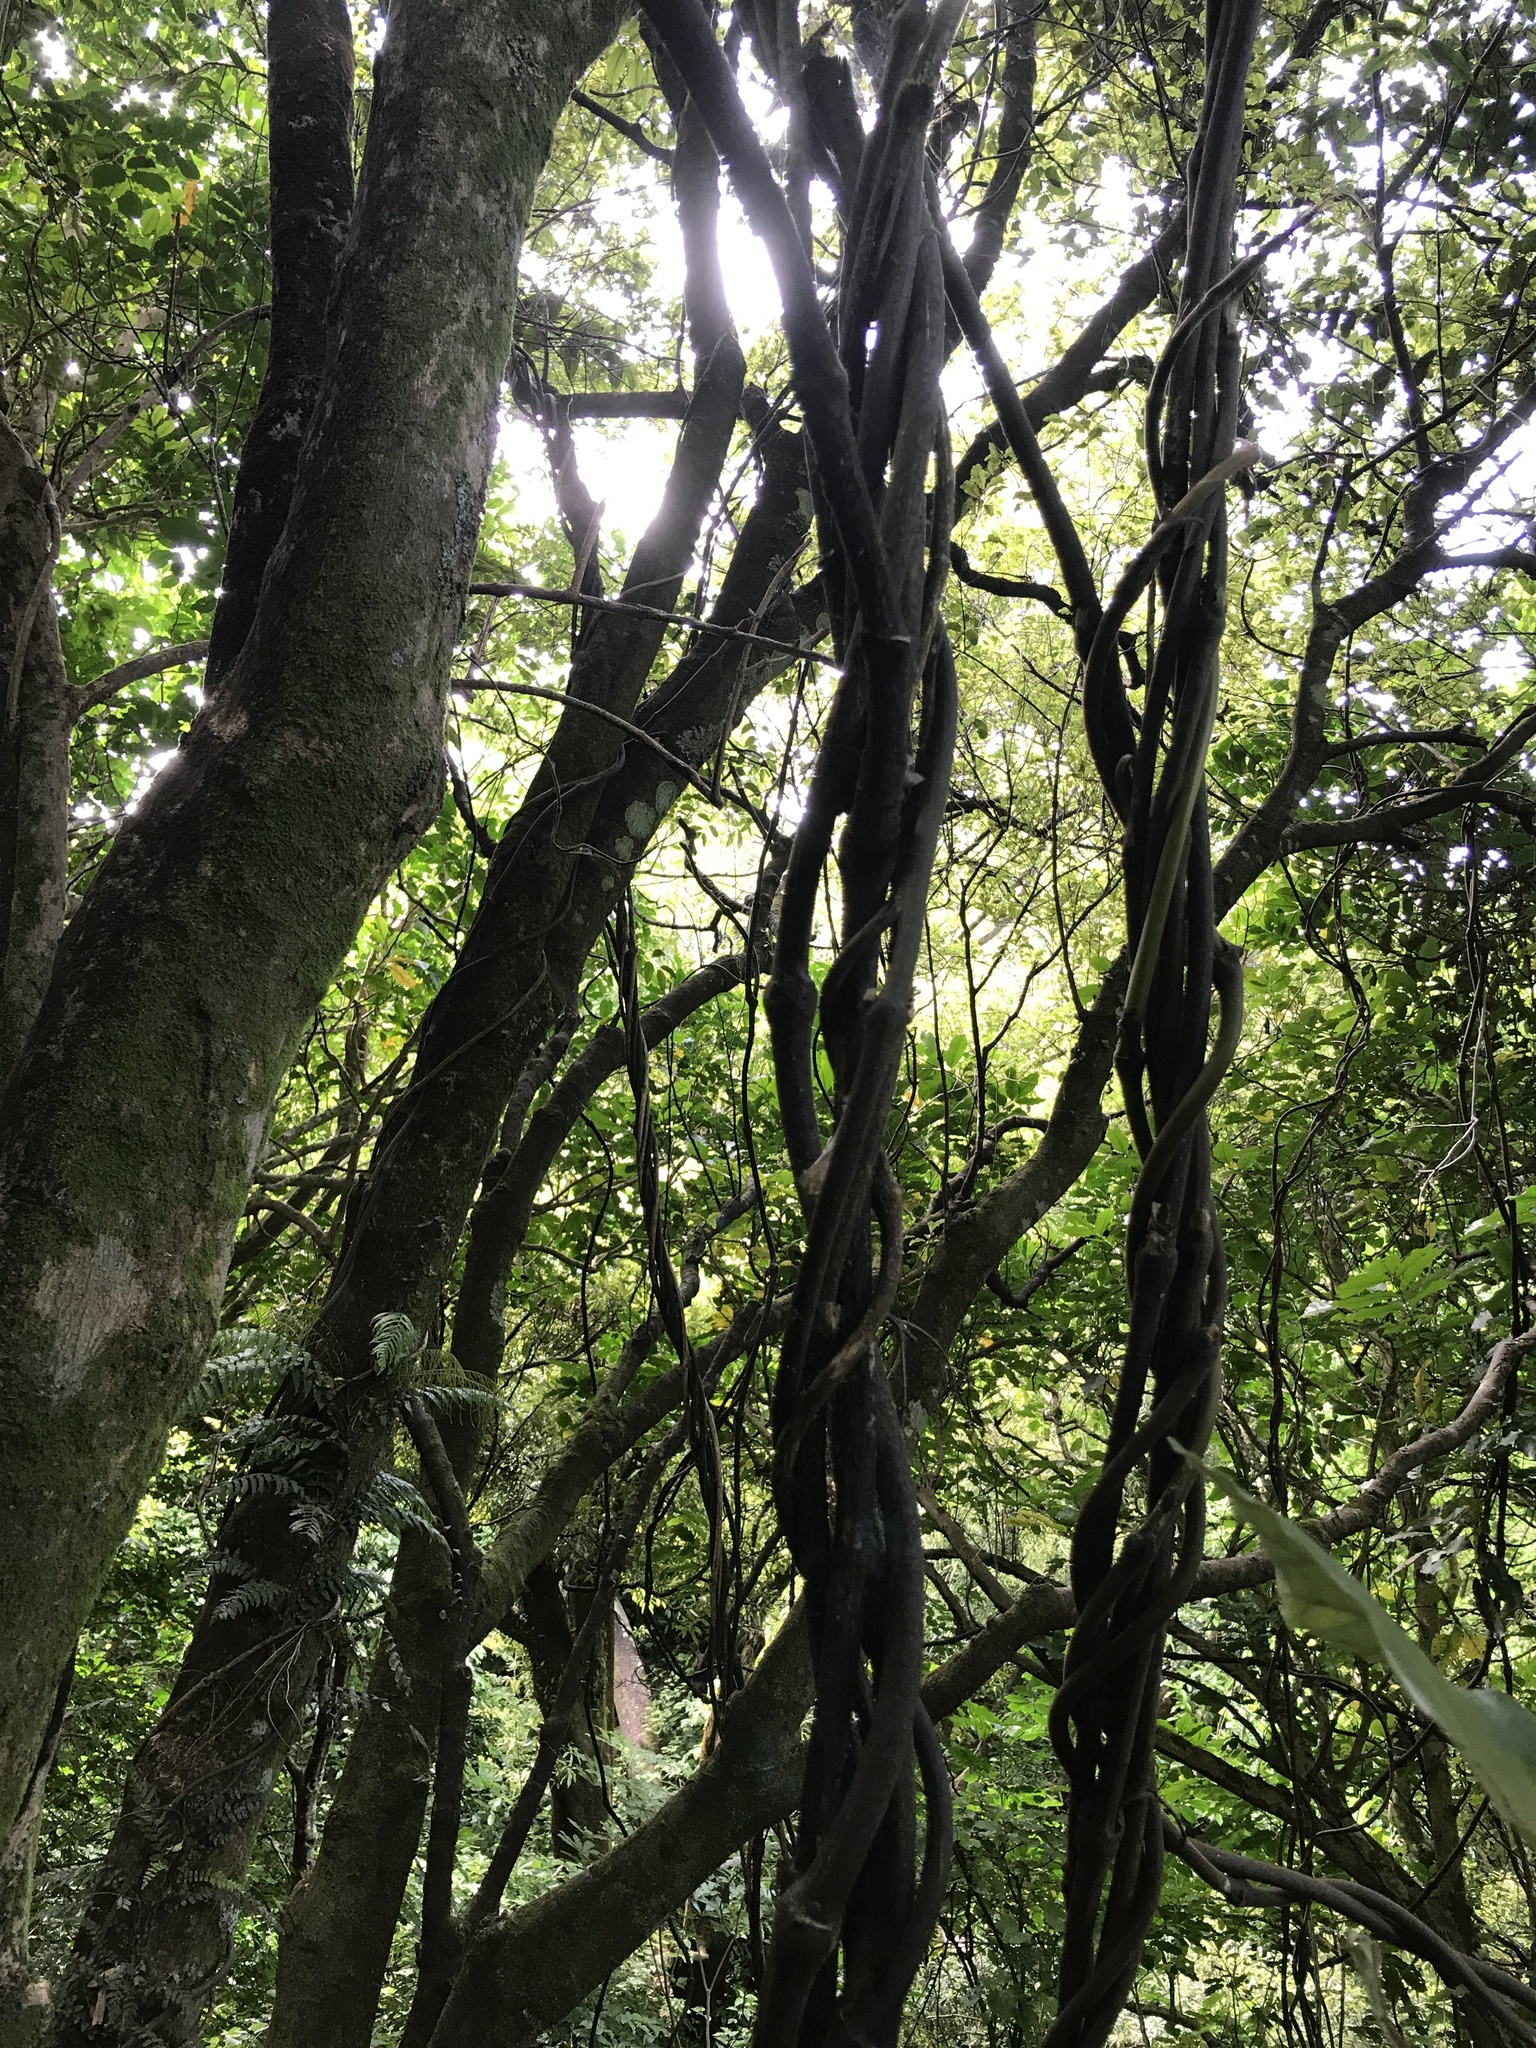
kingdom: Plantae
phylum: Tracheophyta
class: Liliopsida
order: Liliales
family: Ripogonaceae
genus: Ripogonum
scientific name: Ripogonum scandens
